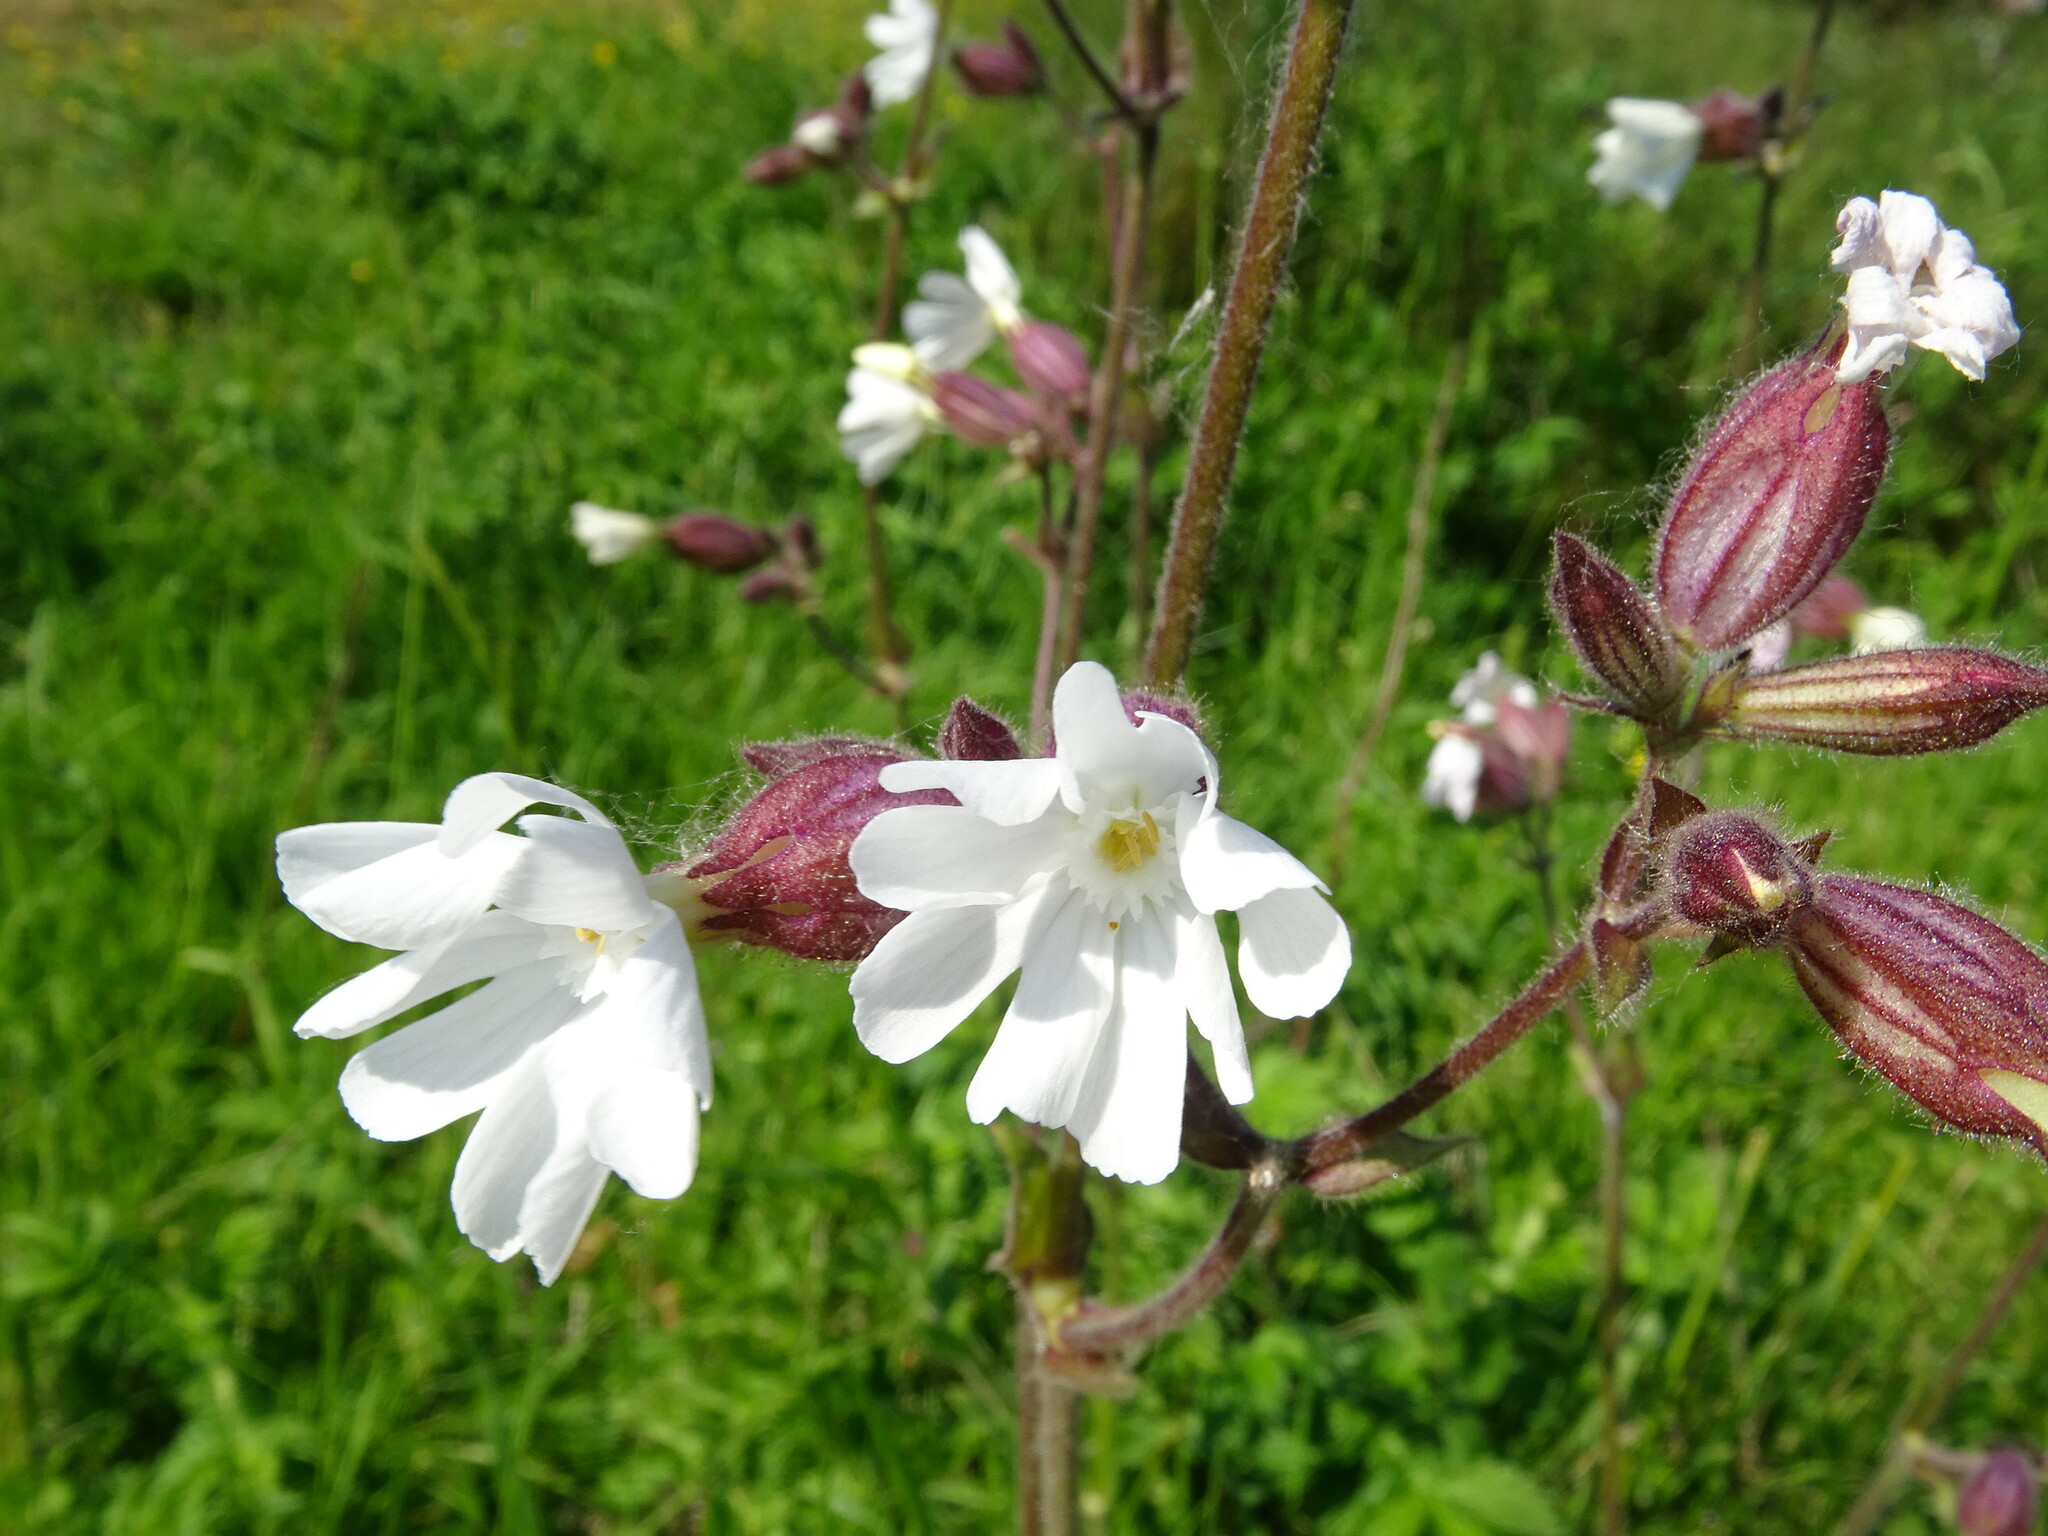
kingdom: Plantae
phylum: Tracheophyta
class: Magnoliopsida
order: Caryophyllales
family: Caryophyllaceae
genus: Silene
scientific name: Silene latifolia
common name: White campion
